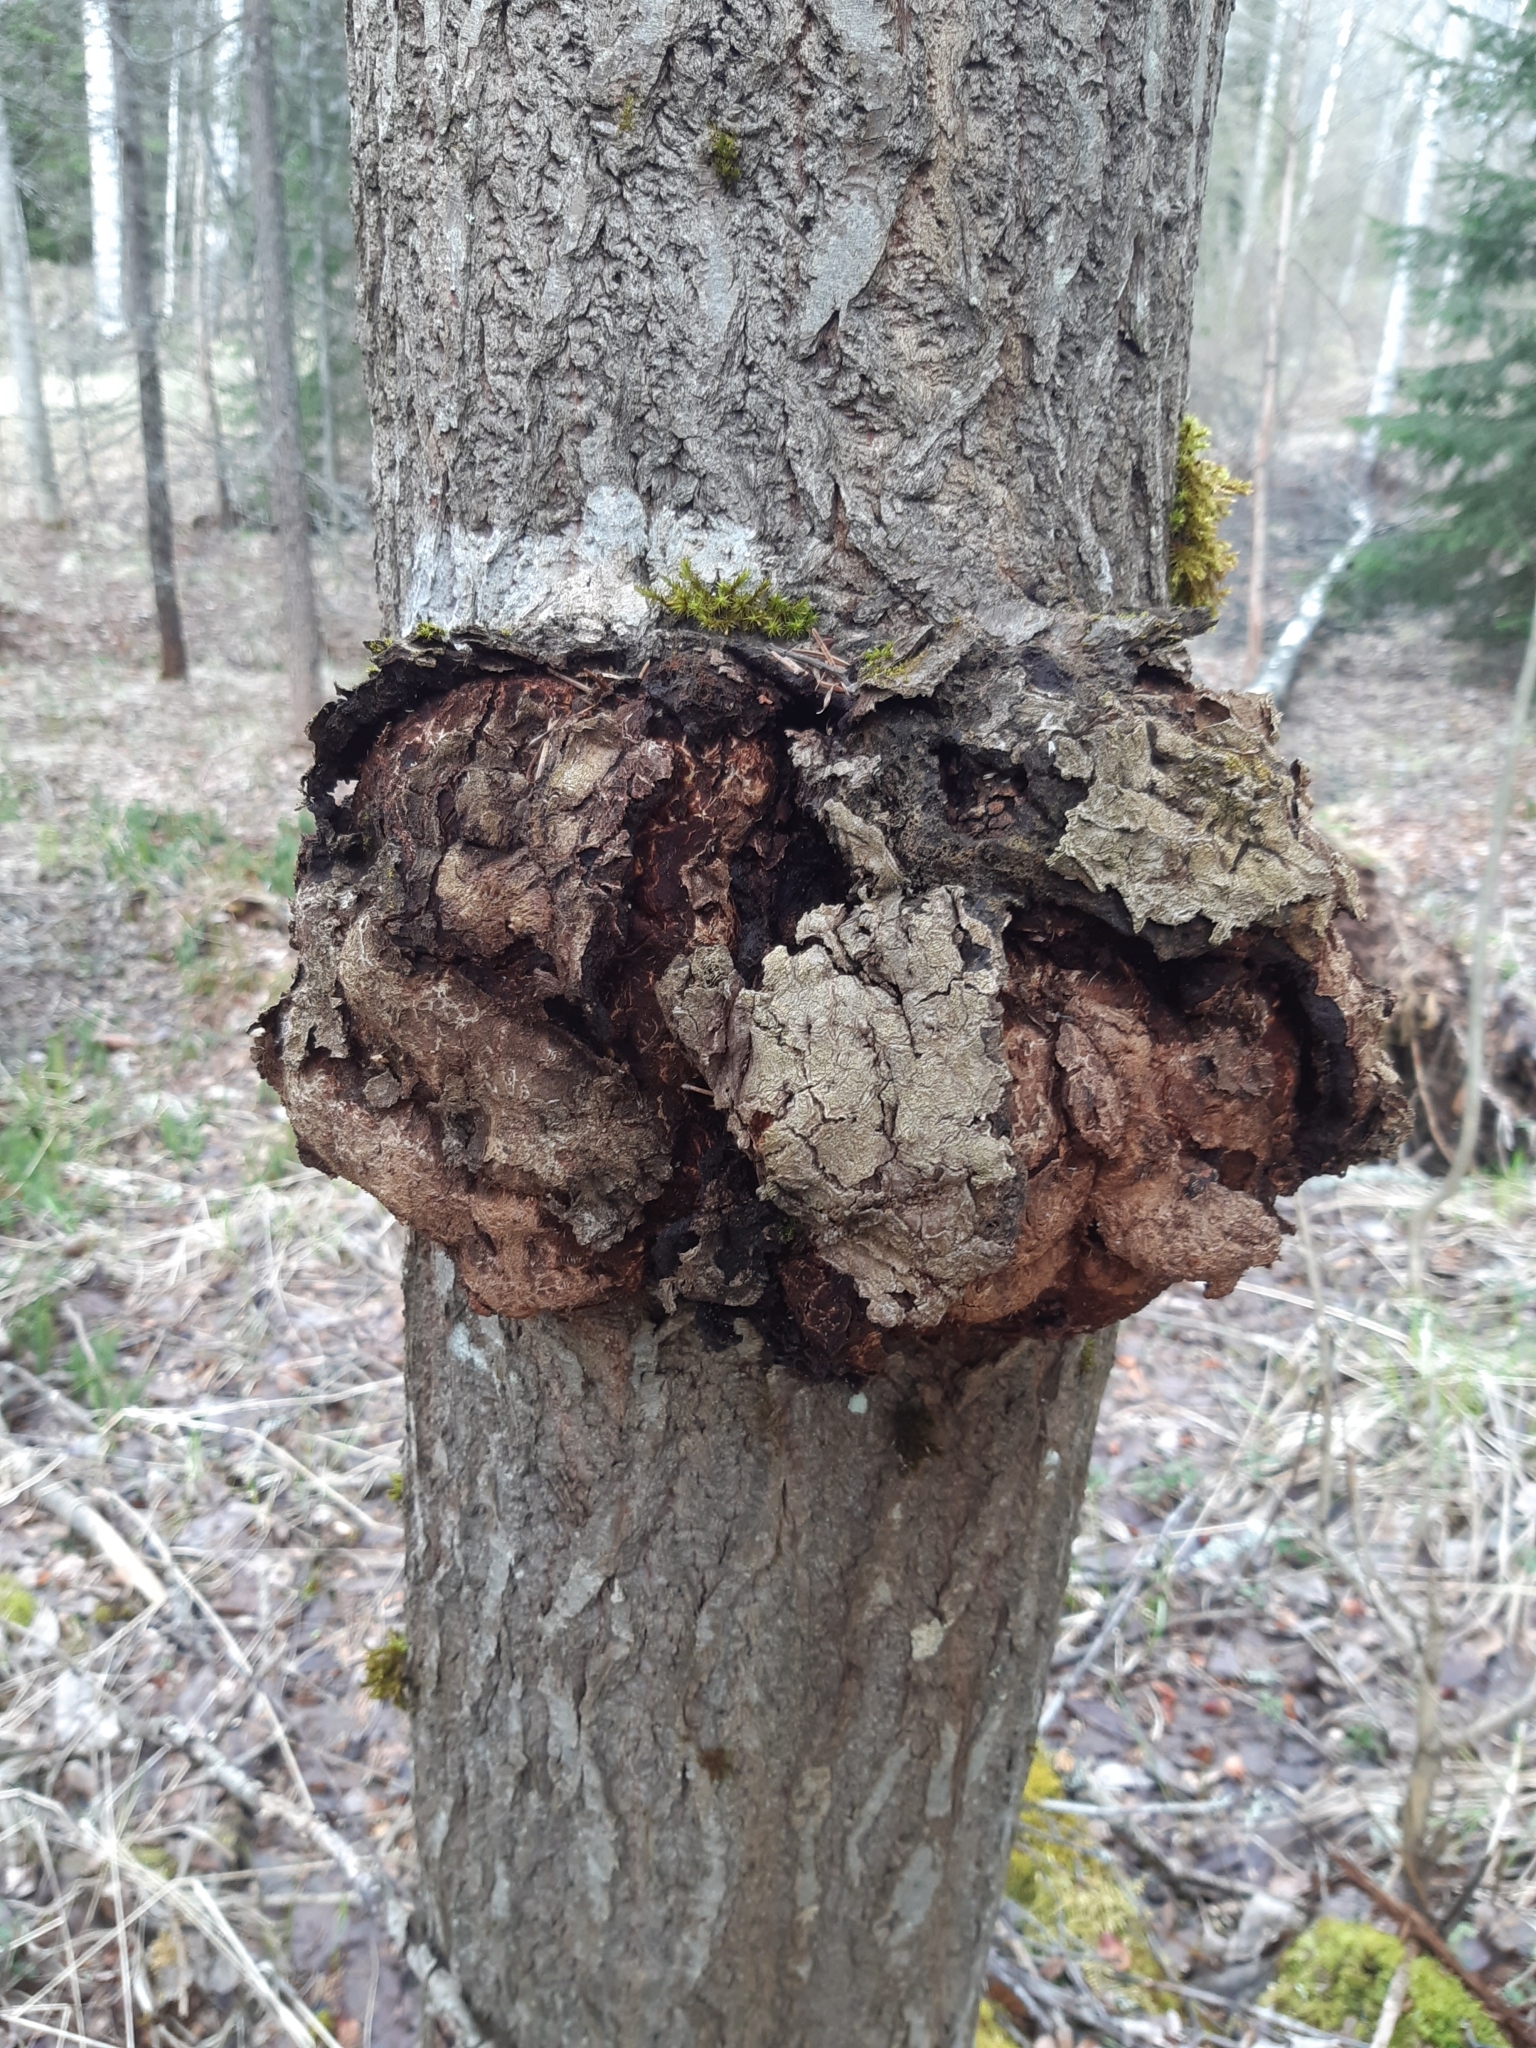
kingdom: Bacteria
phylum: Proteobacteria
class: Alphaproteobacteria
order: Rhizobiales
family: Rhizobiaceae
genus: Rhizobium
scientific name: Rhizobium Agrobacterium radiobacter
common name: Bacterial crown gall
